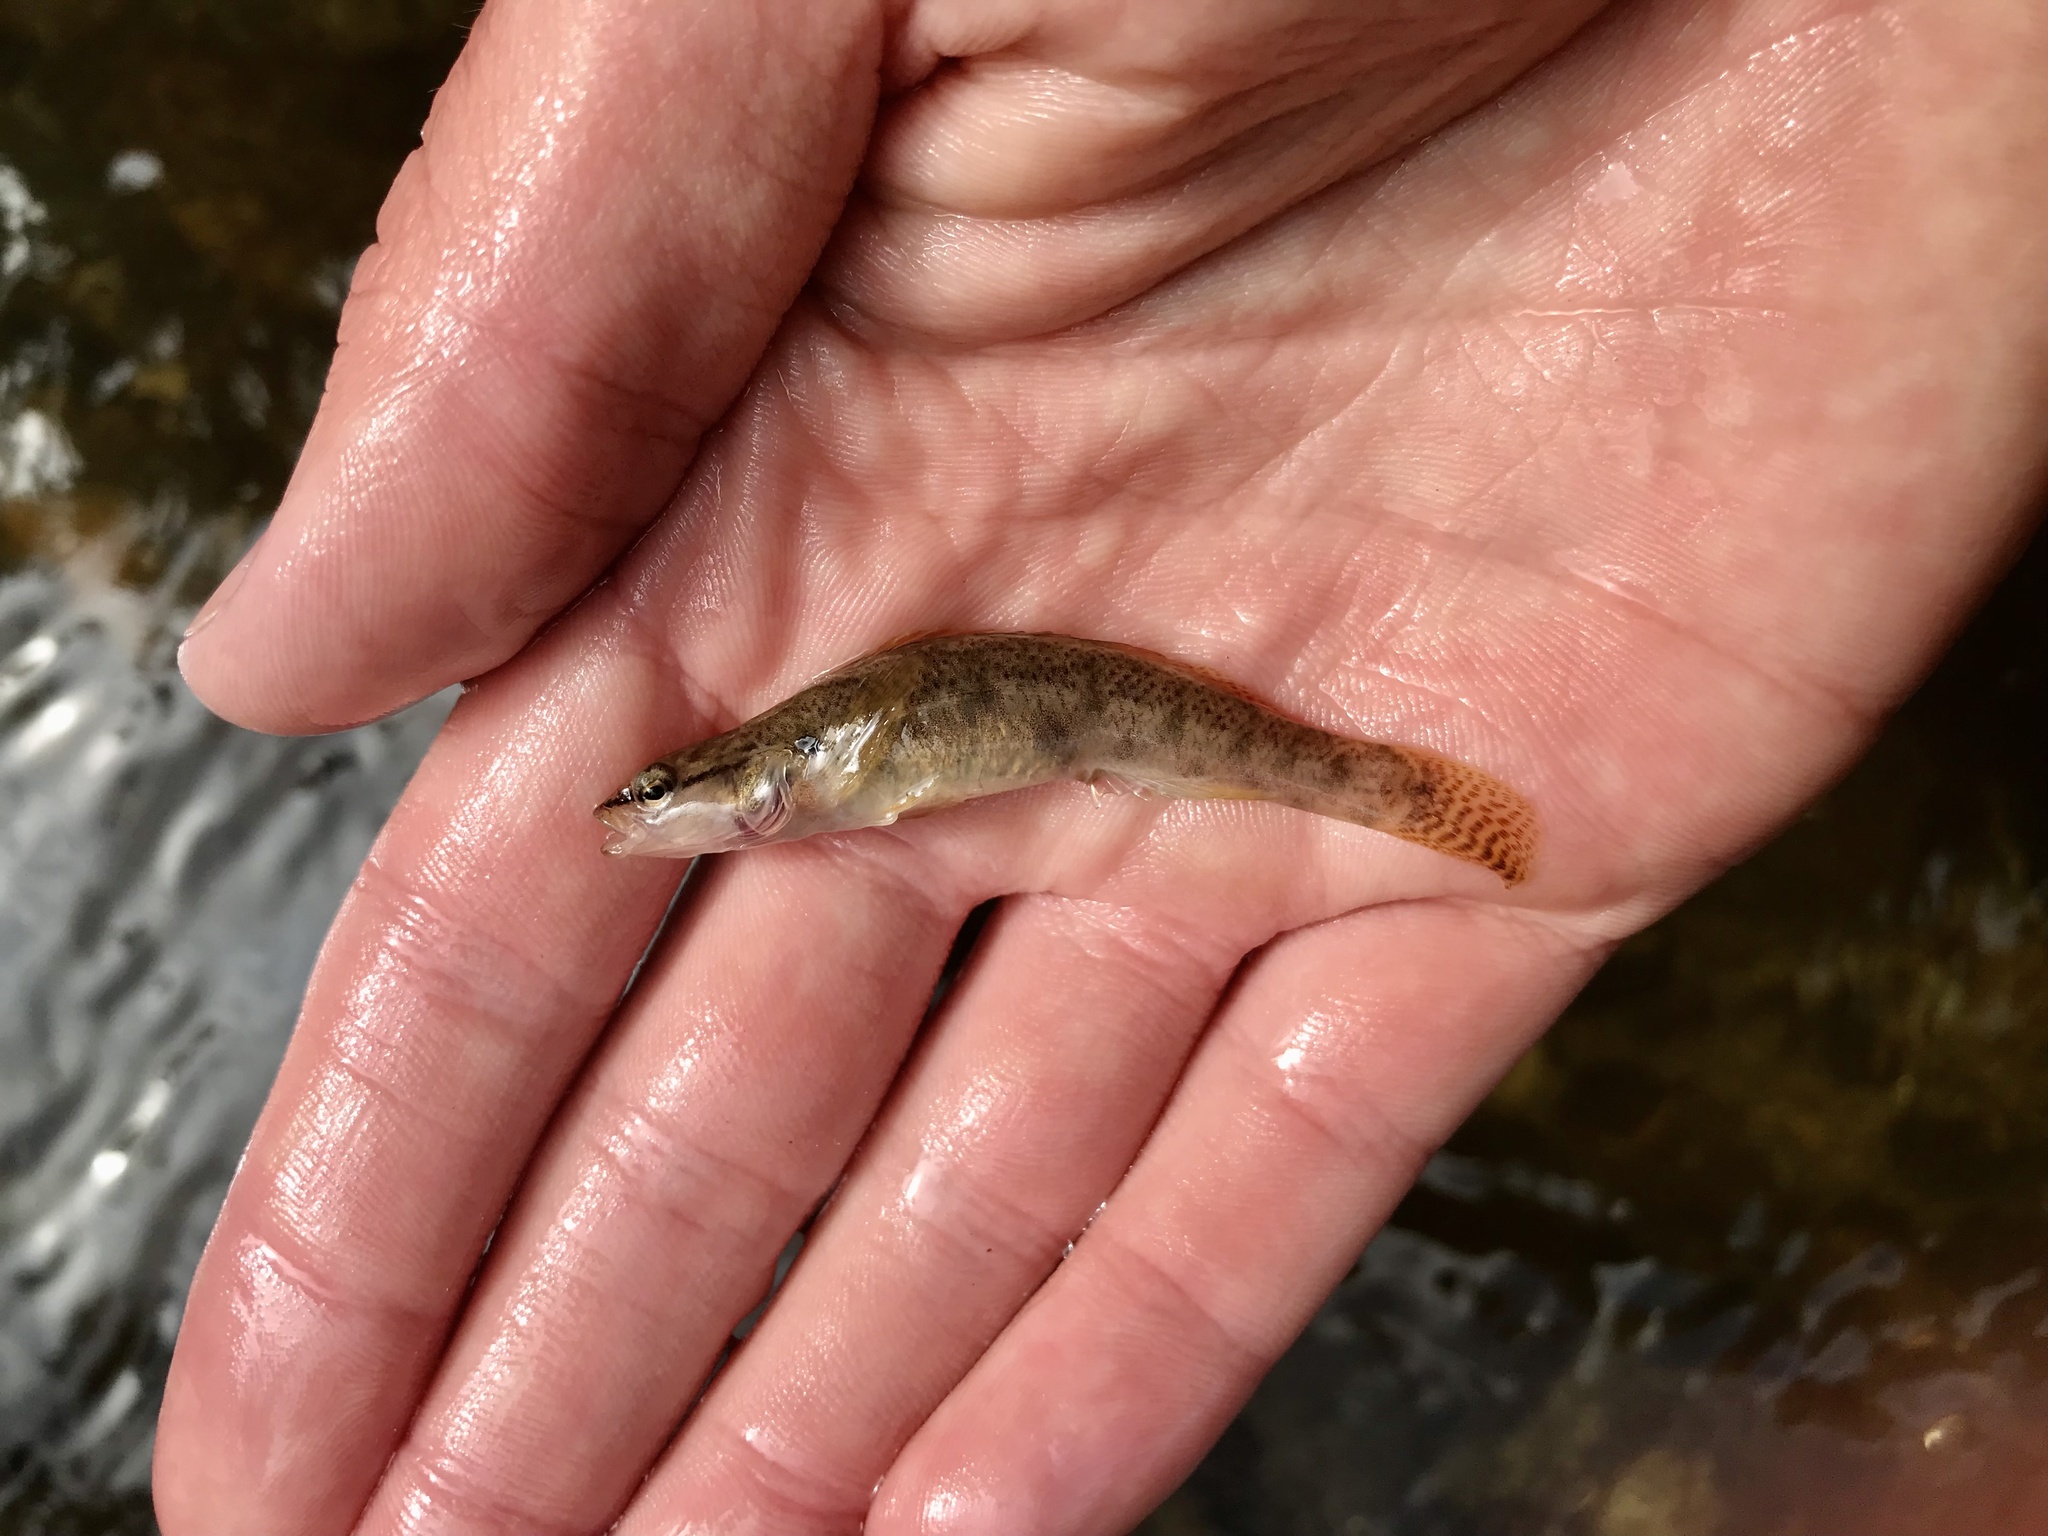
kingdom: Animalia
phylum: Chordata
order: Perciformes
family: Percidae
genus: Etheostoma
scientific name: Etheostoma flabellare
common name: Fantail darter
